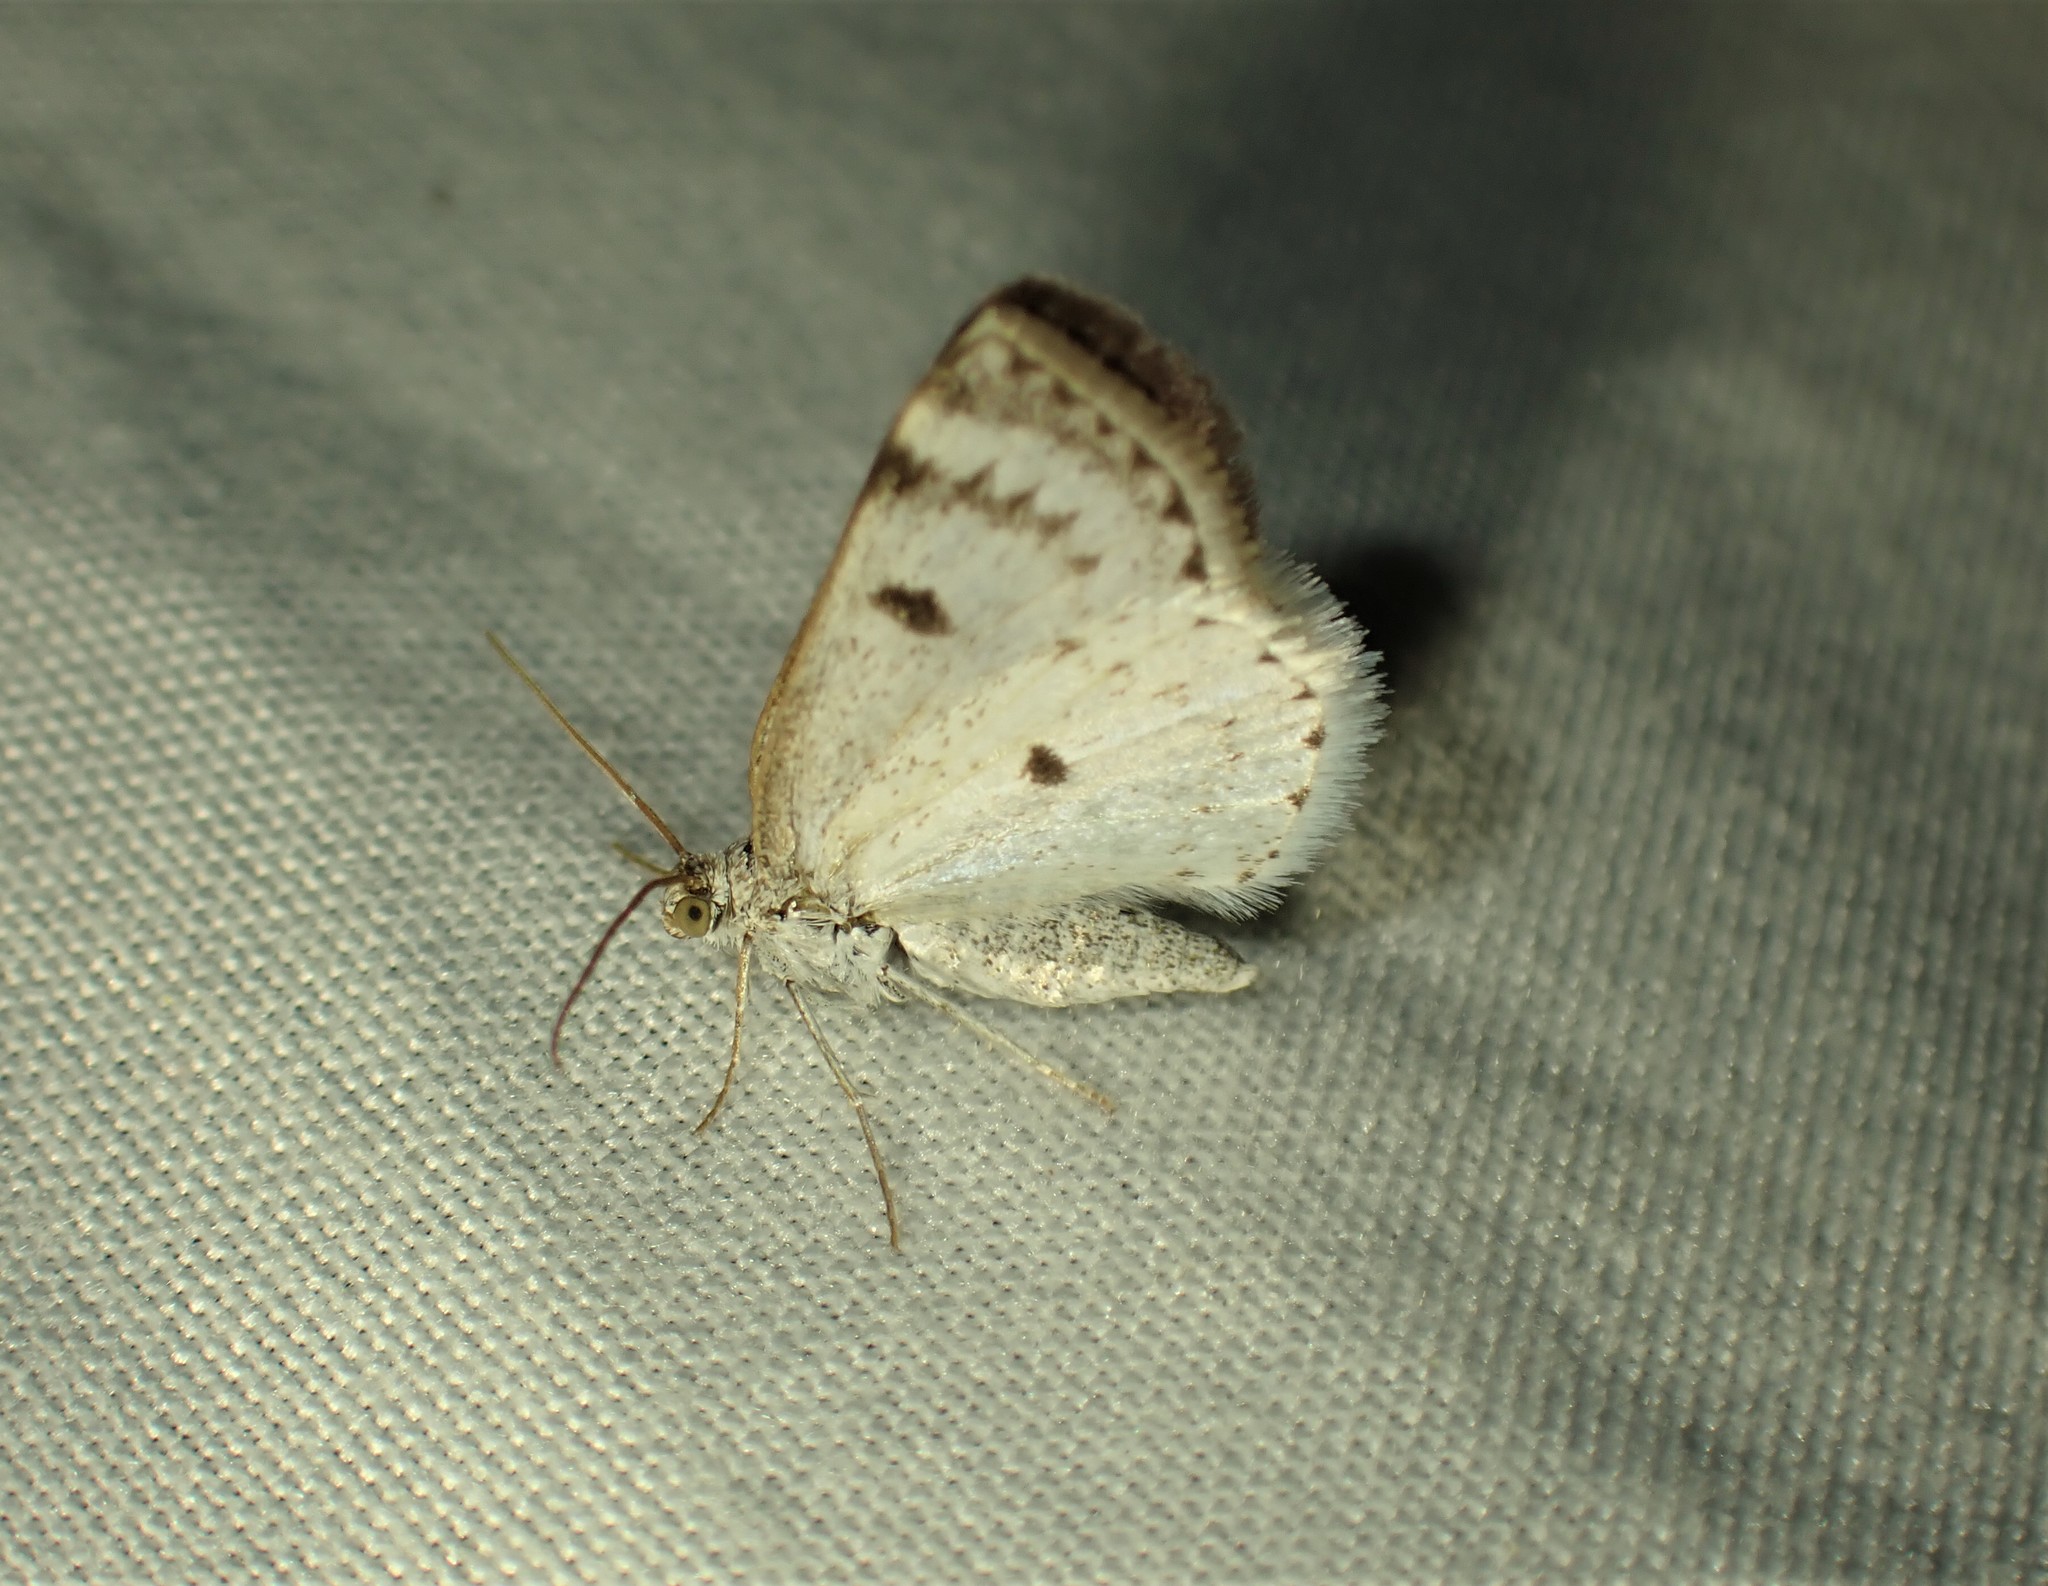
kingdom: Animalia
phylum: Arthropoda
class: Insecta
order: Lepidoptera
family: Geometridae
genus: Lomographa
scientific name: Lomographa semiclarata
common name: Bluish spring moth
